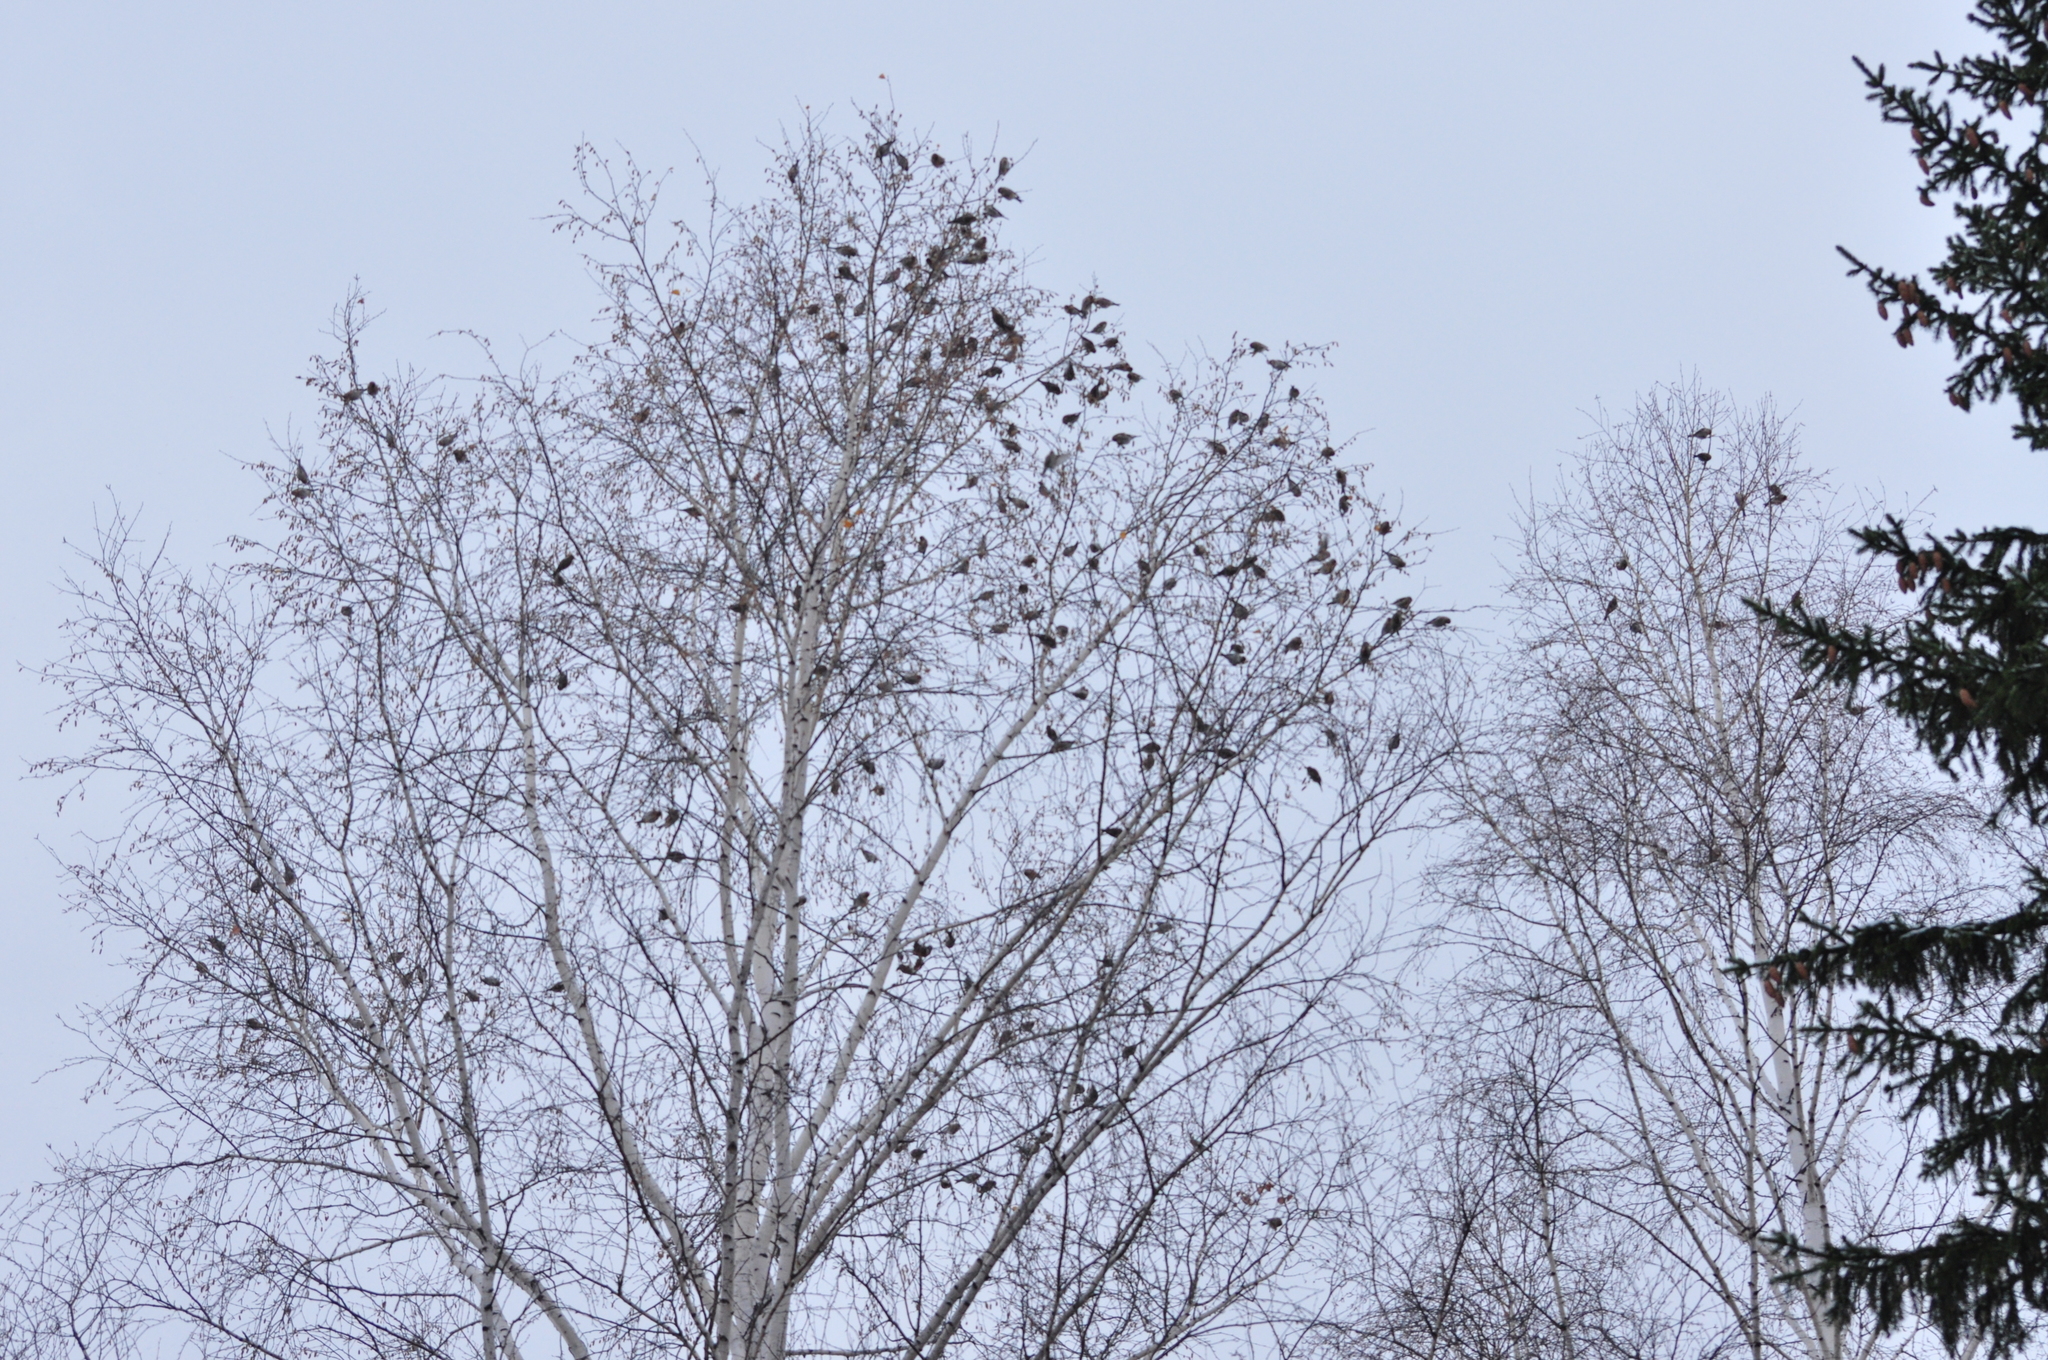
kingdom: Animalia
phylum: Chordata
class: Aves
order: Passeriformes
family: Fringillidae
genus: Acanthis
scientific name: Acanthis flammea
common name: Common redpoll
